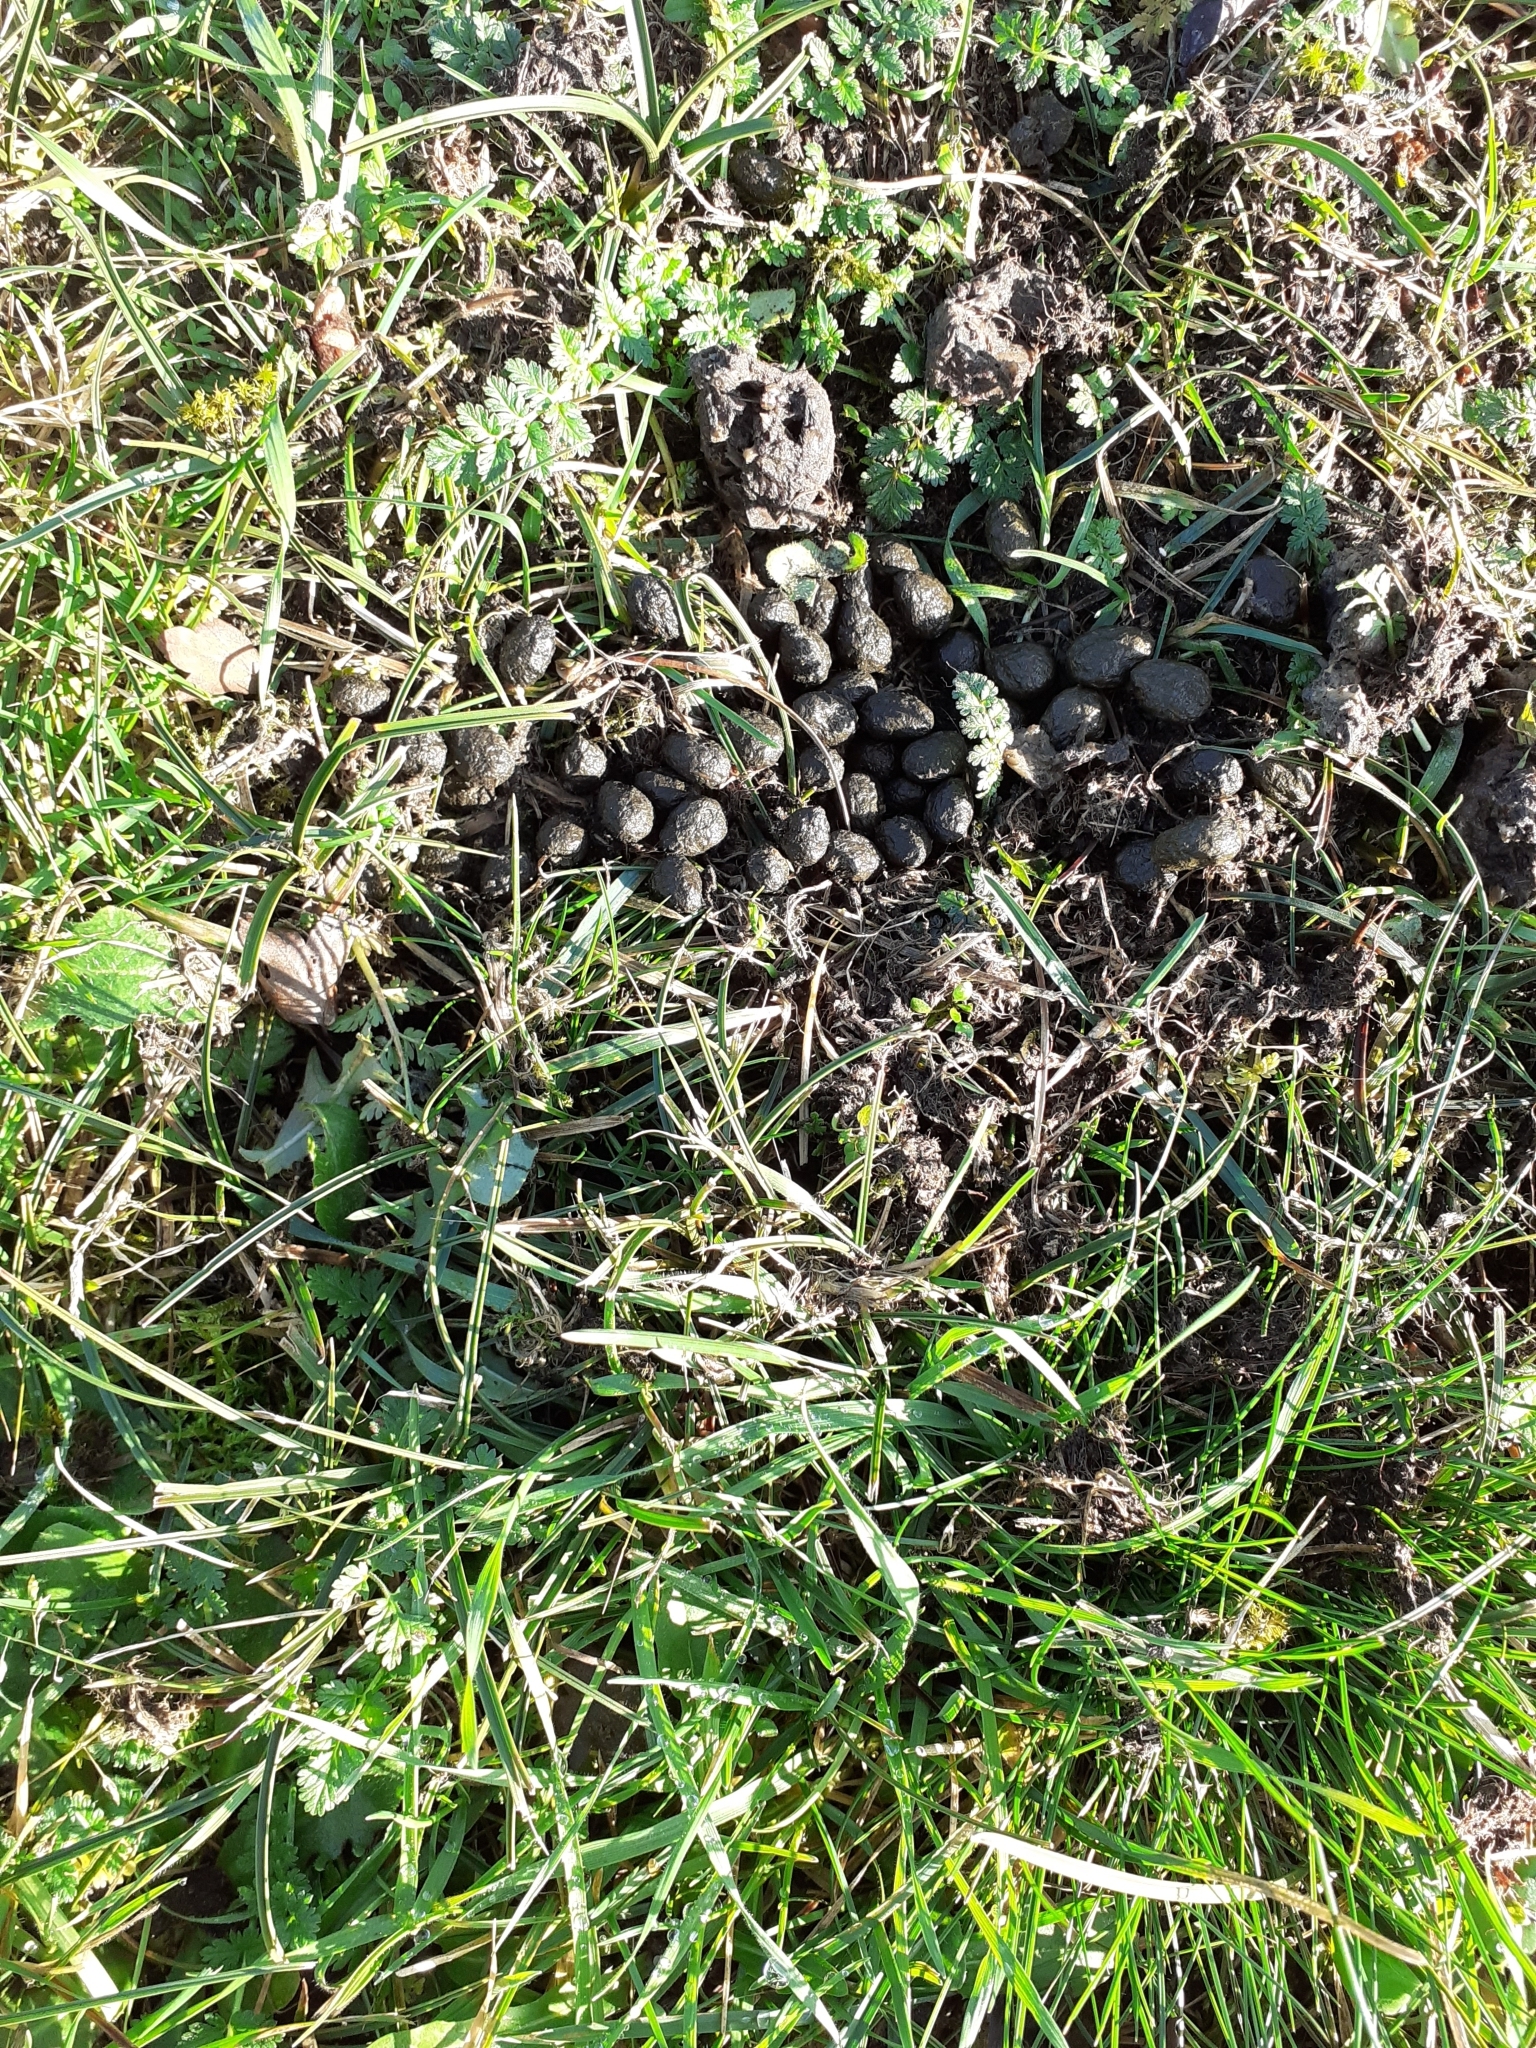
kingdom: Animalia
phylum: Chordata
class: Mammalia
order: Lagomorpha
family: Leporidae
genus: Oryctolagus
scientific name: Oryctolagus cuniculus
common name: European rabbit
